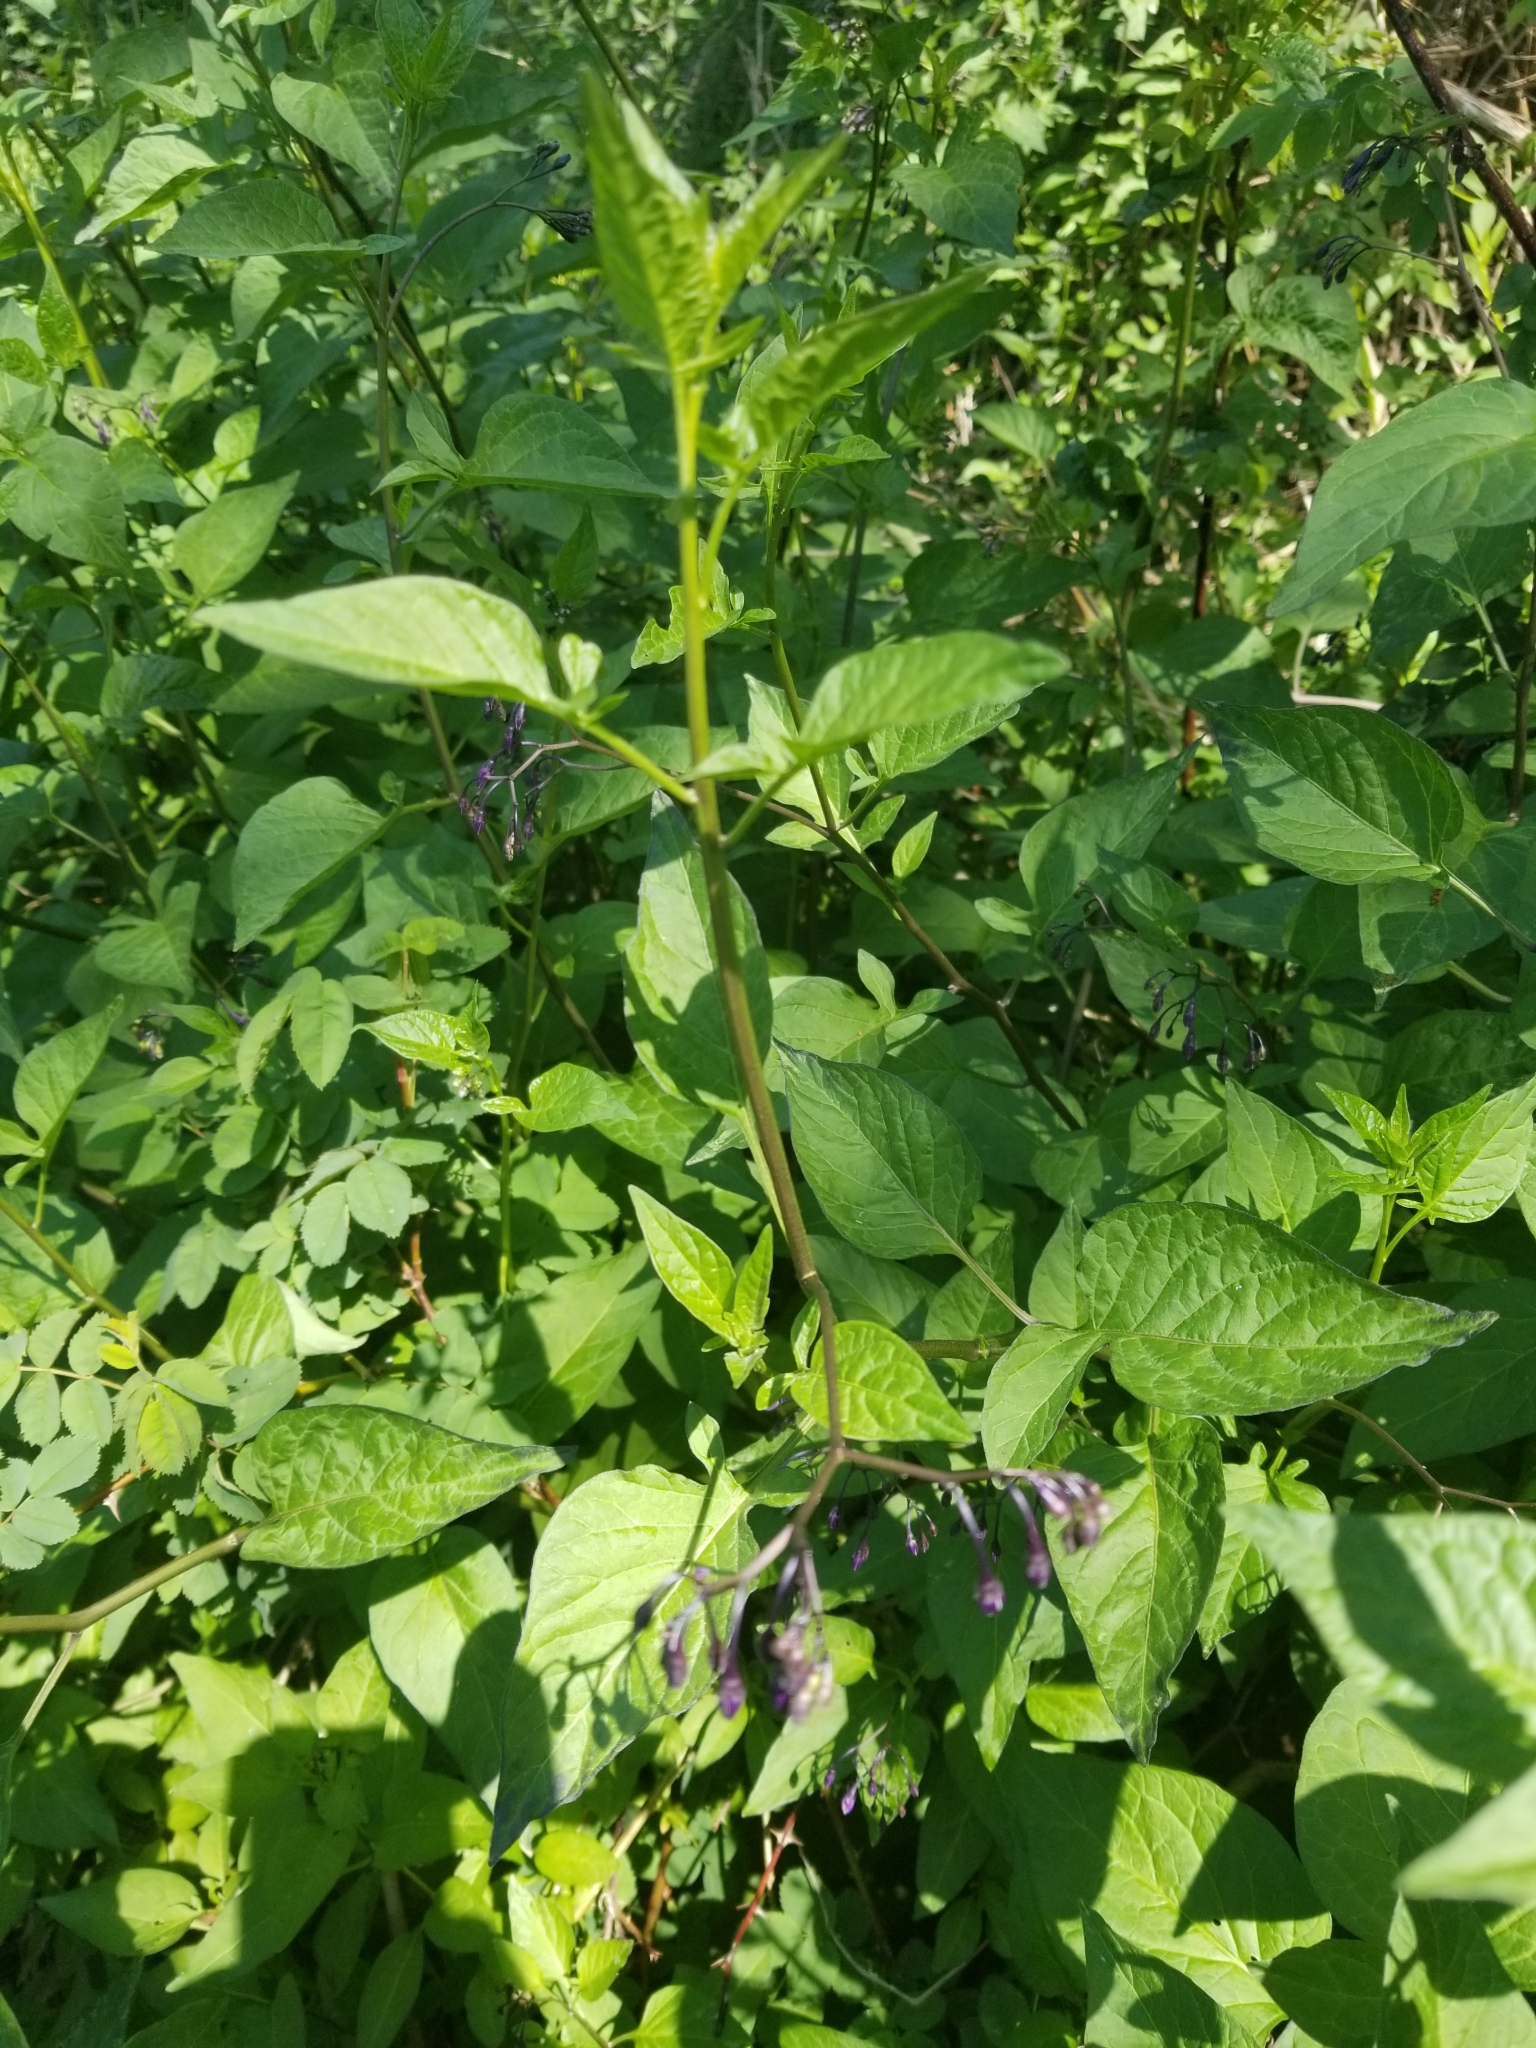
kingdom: Plantae
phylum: Tracheophyta
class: Magnoliopsida
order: Solanales
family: Solanaceae
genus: Solanum
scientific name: Solanum dulcamara
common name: Climbing nightshade
